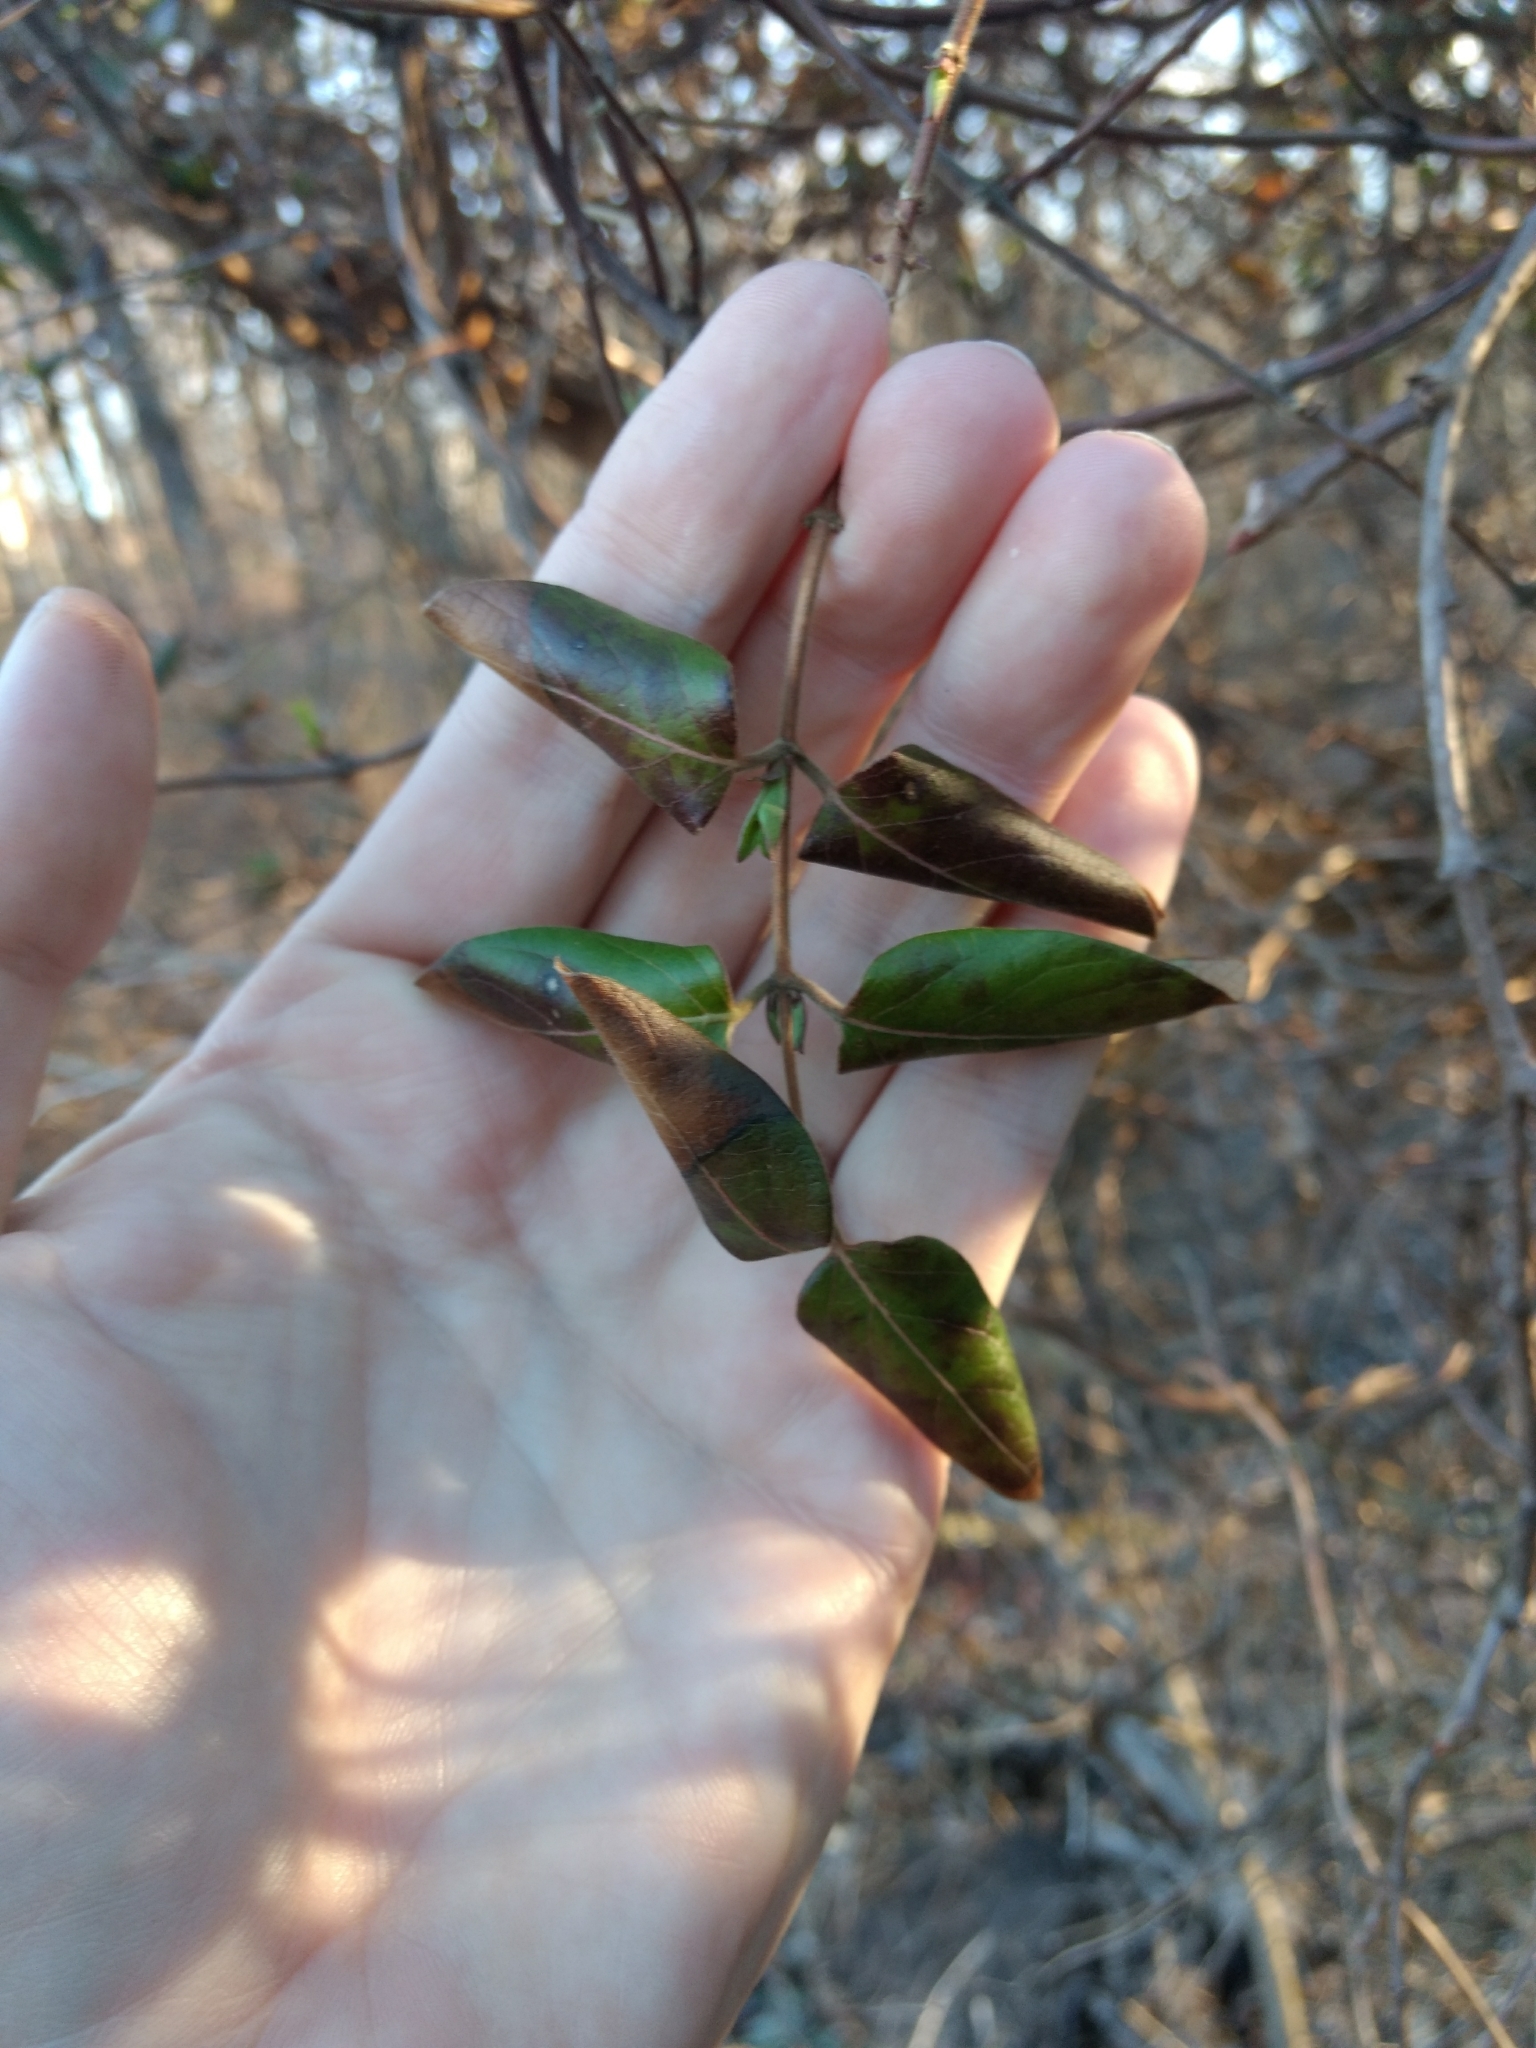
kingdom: Plantae
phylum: Tracheophyta
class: Magnoliopsida
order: Dipsacales
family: Caprifoliaceae
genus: Lonicera
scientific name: Lonicera japonica
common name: Japanese honeysuckle
